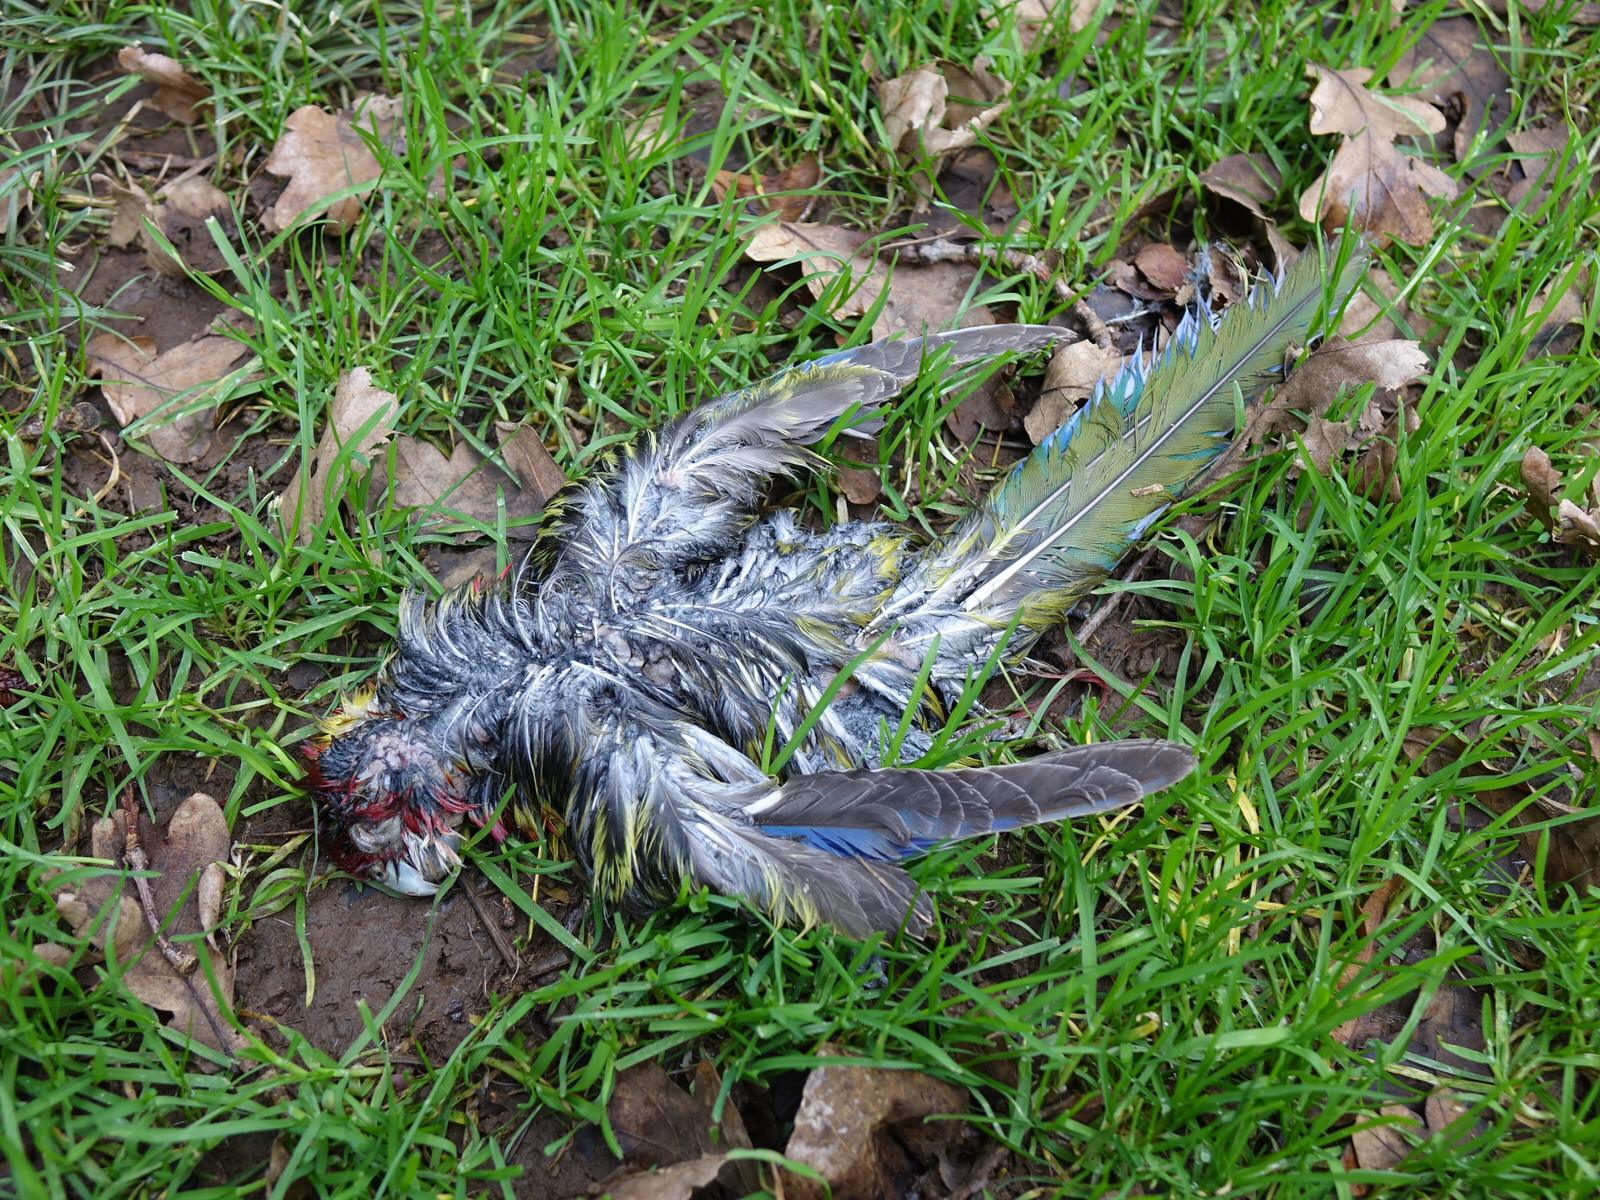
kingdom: Animalia
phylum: Chordata
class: Aves
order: Psittaciformes
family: Psittacidae
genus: Platycercus
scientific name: Platycercus eximius
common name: Eastern rosella
